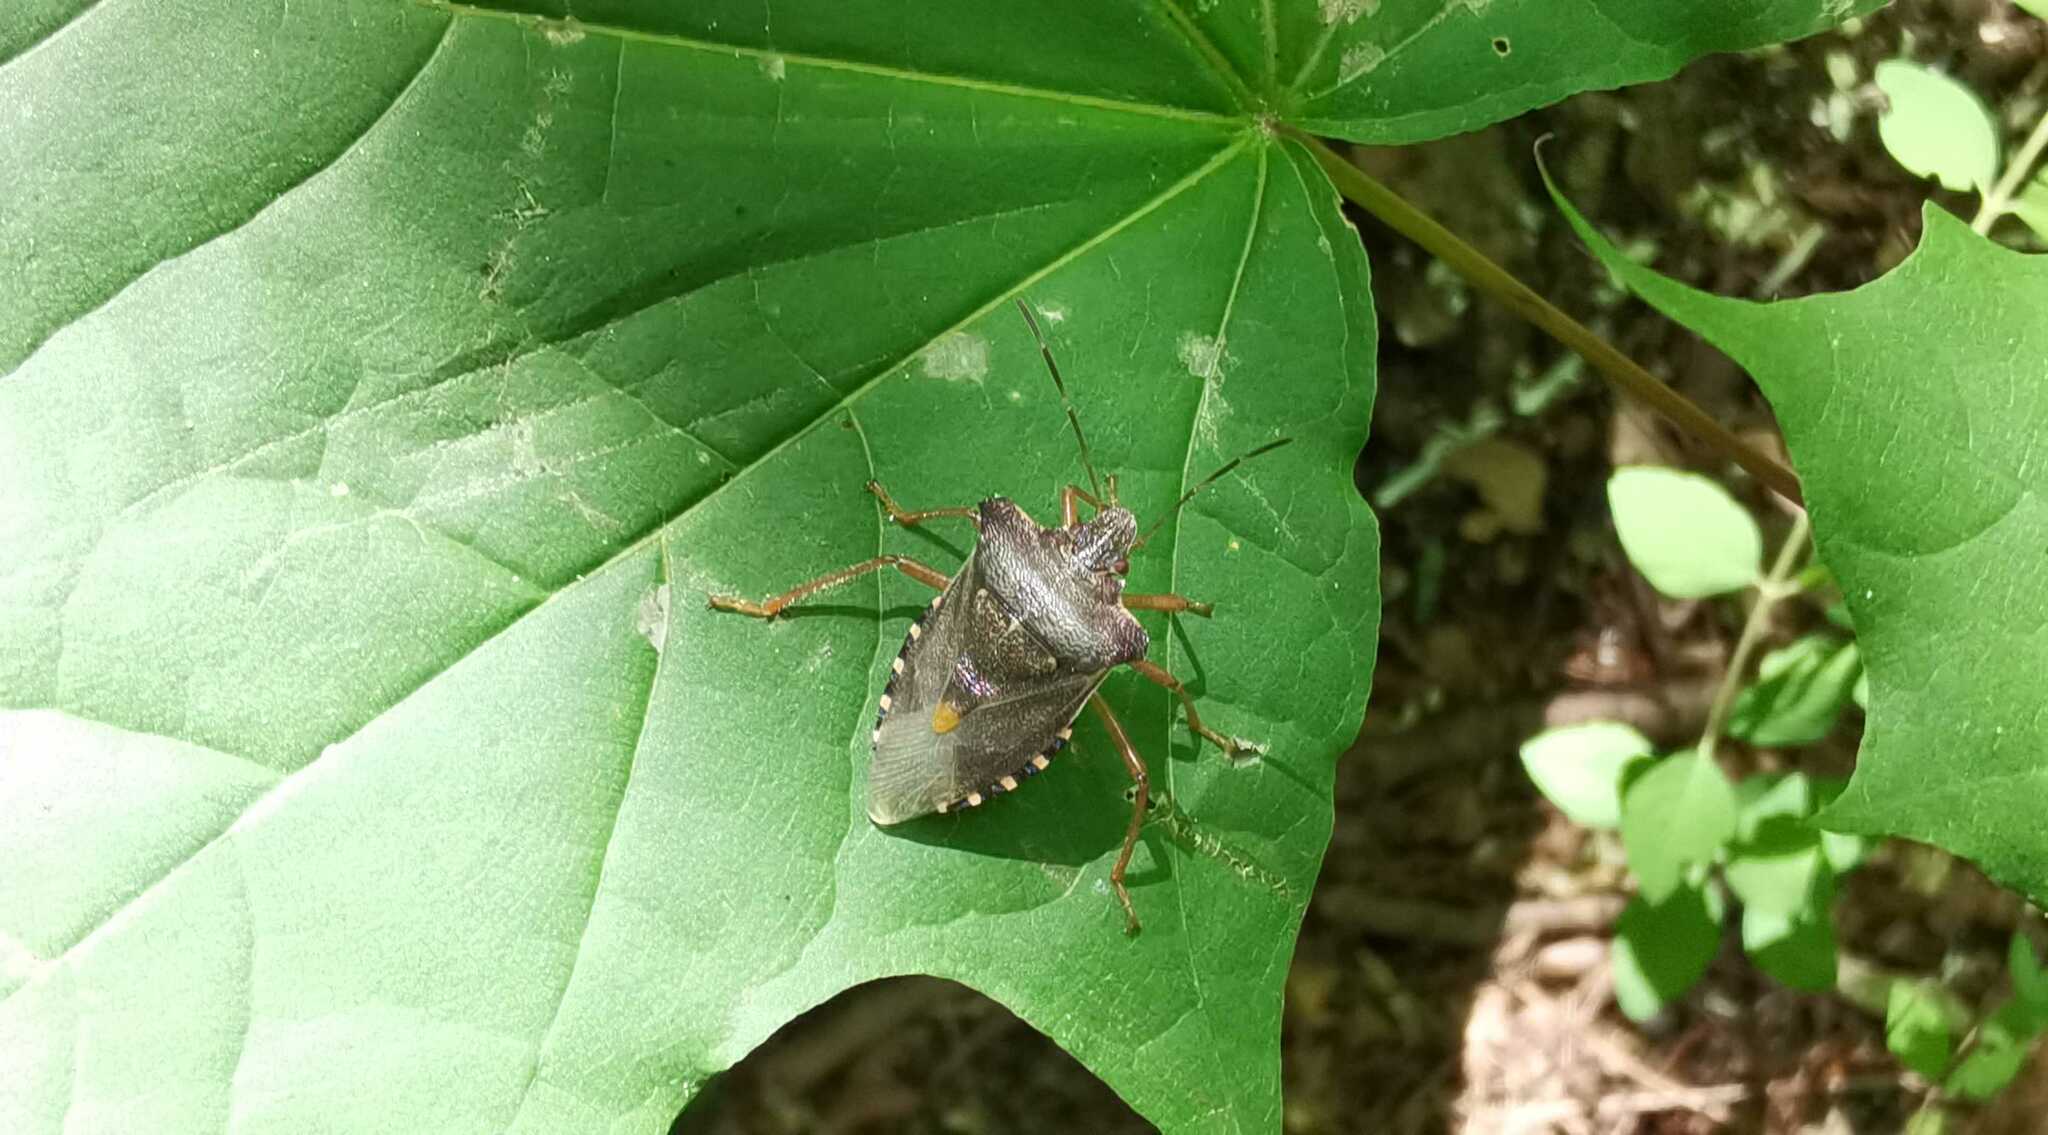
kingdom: Animalia
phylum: Arthropoda
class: Insecta
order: Hemiptera
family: Pentatomidae
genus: Pentatoma
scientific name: Pentatoma rufipes
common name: Forest bug
